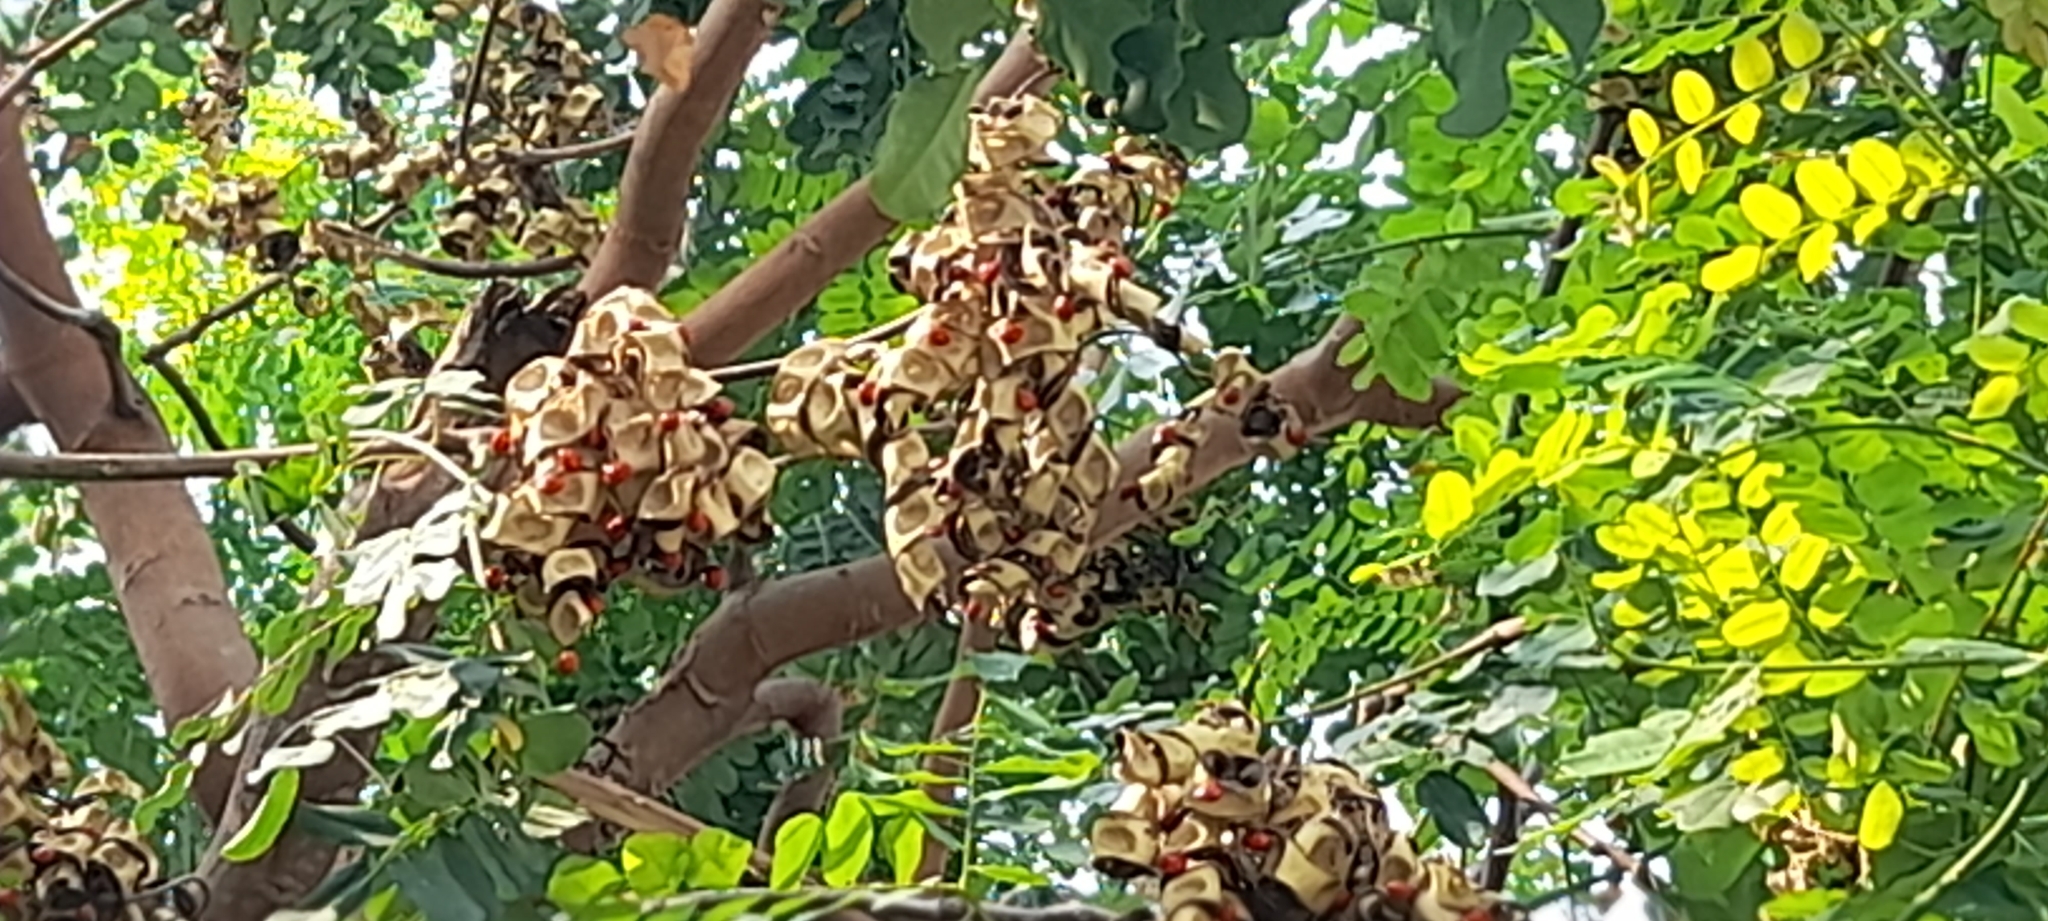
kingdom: Plantae
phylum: Tracheophyta
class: Magnoliopsida
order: Fabales
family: Fabaceae
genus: Adenanthera
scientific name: Adenanthera pavonina
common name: Red beadtree
